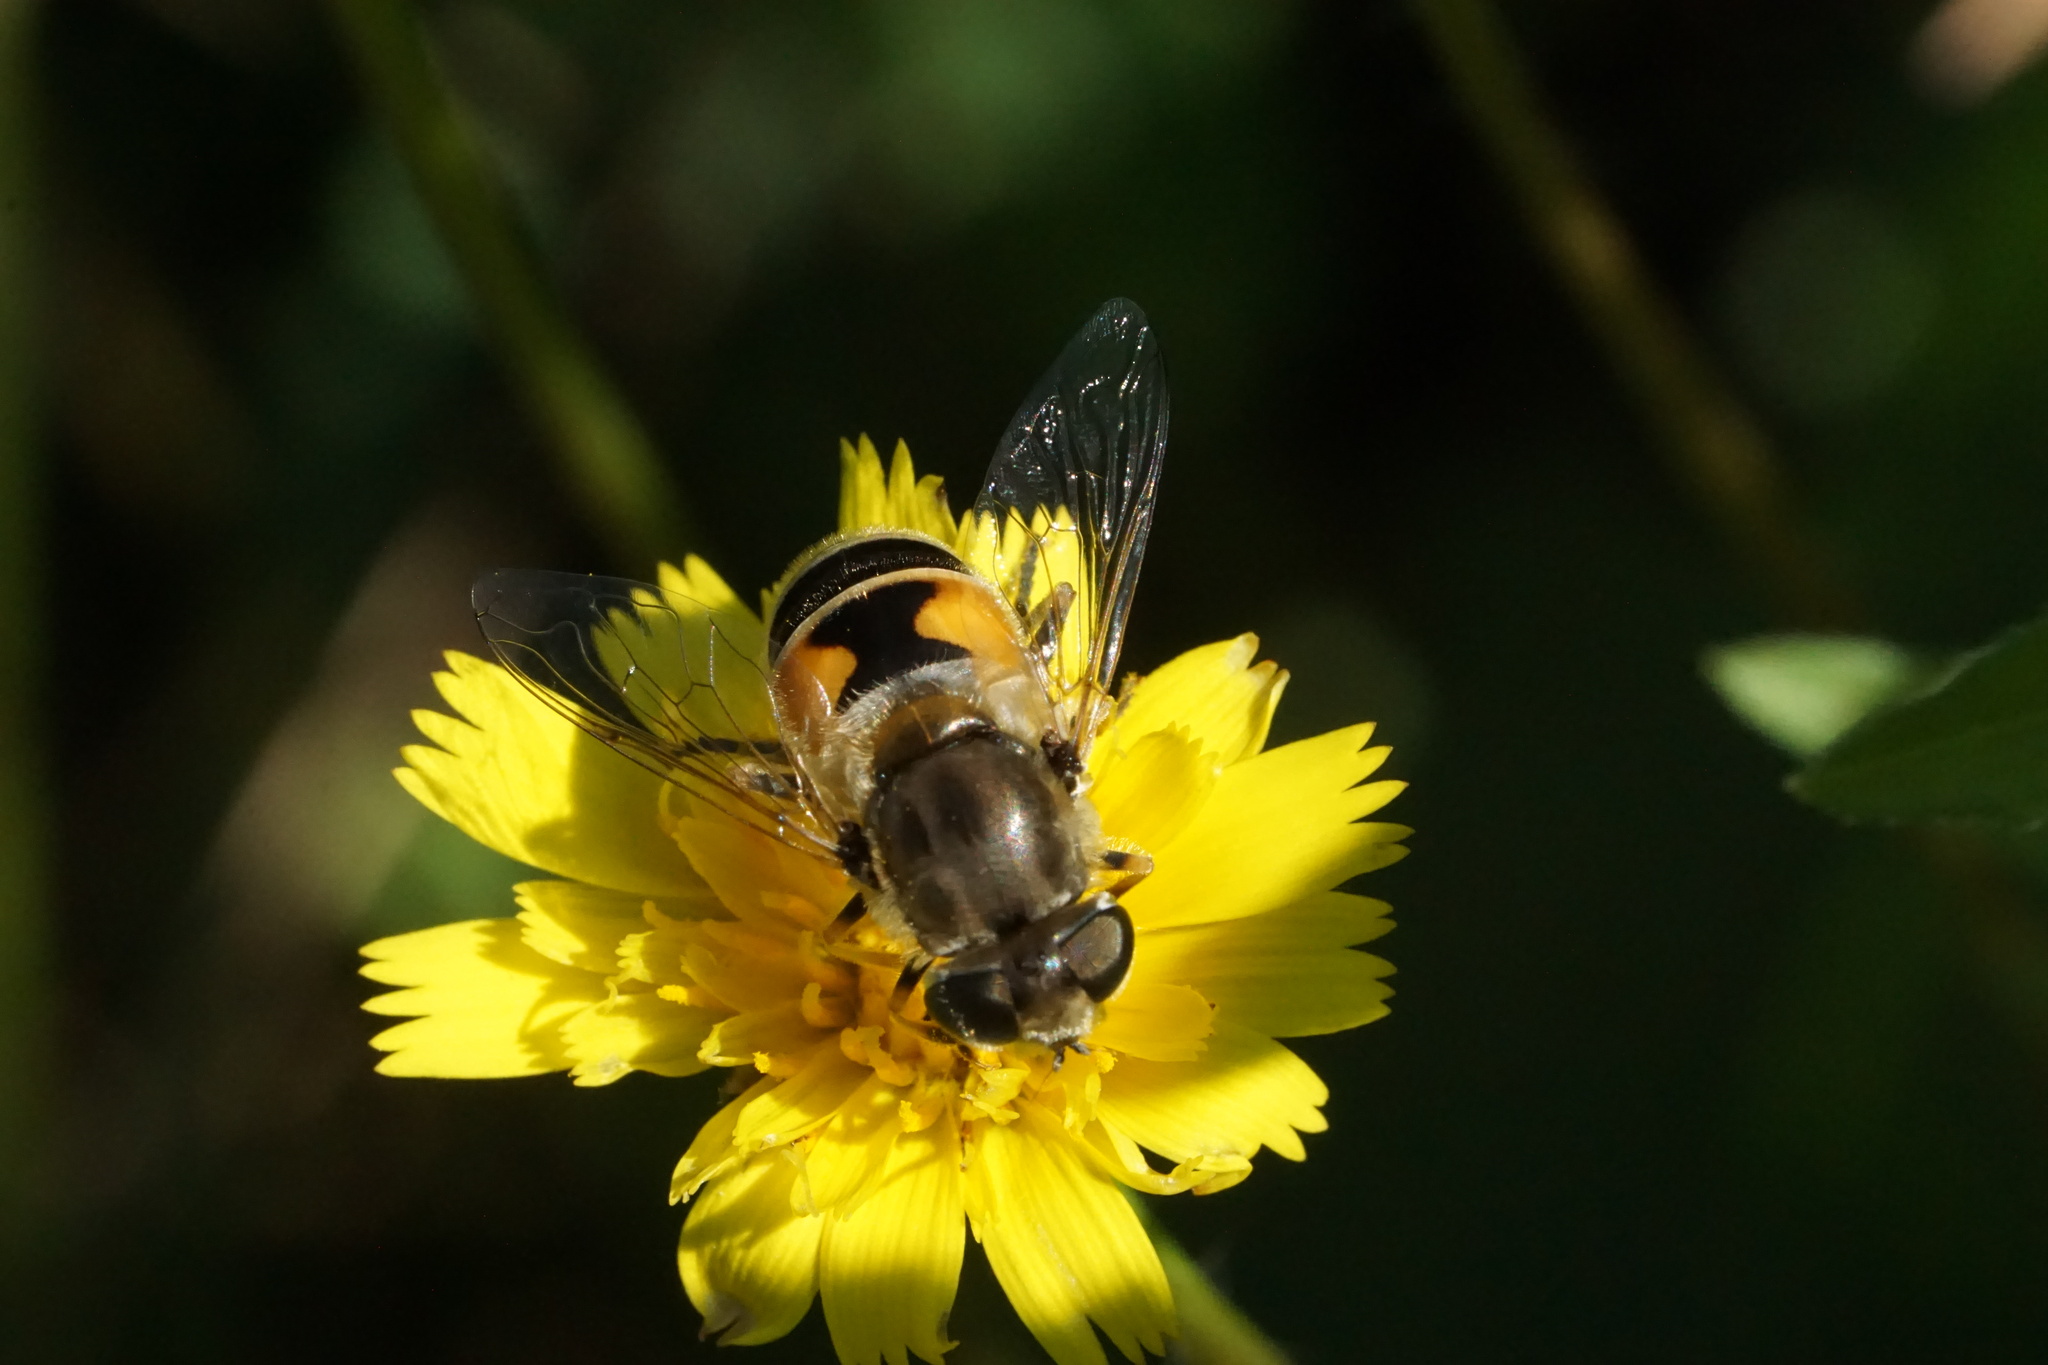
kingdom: Animalia
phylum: Arthropoda
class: Insecta
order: Diptera
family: Syrphidae
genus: Eristalis
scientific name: Eristalis arbustorum
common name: Hover fly
